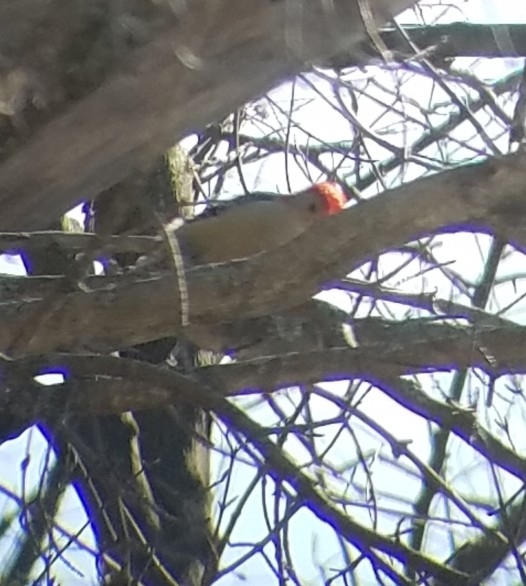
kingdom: Animalia
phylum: Chordata
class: Aves
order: Piciformes
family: Picidae
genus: Melanerpes
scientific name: Melanerpes carolinus
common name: Red-bellied woodpecker
